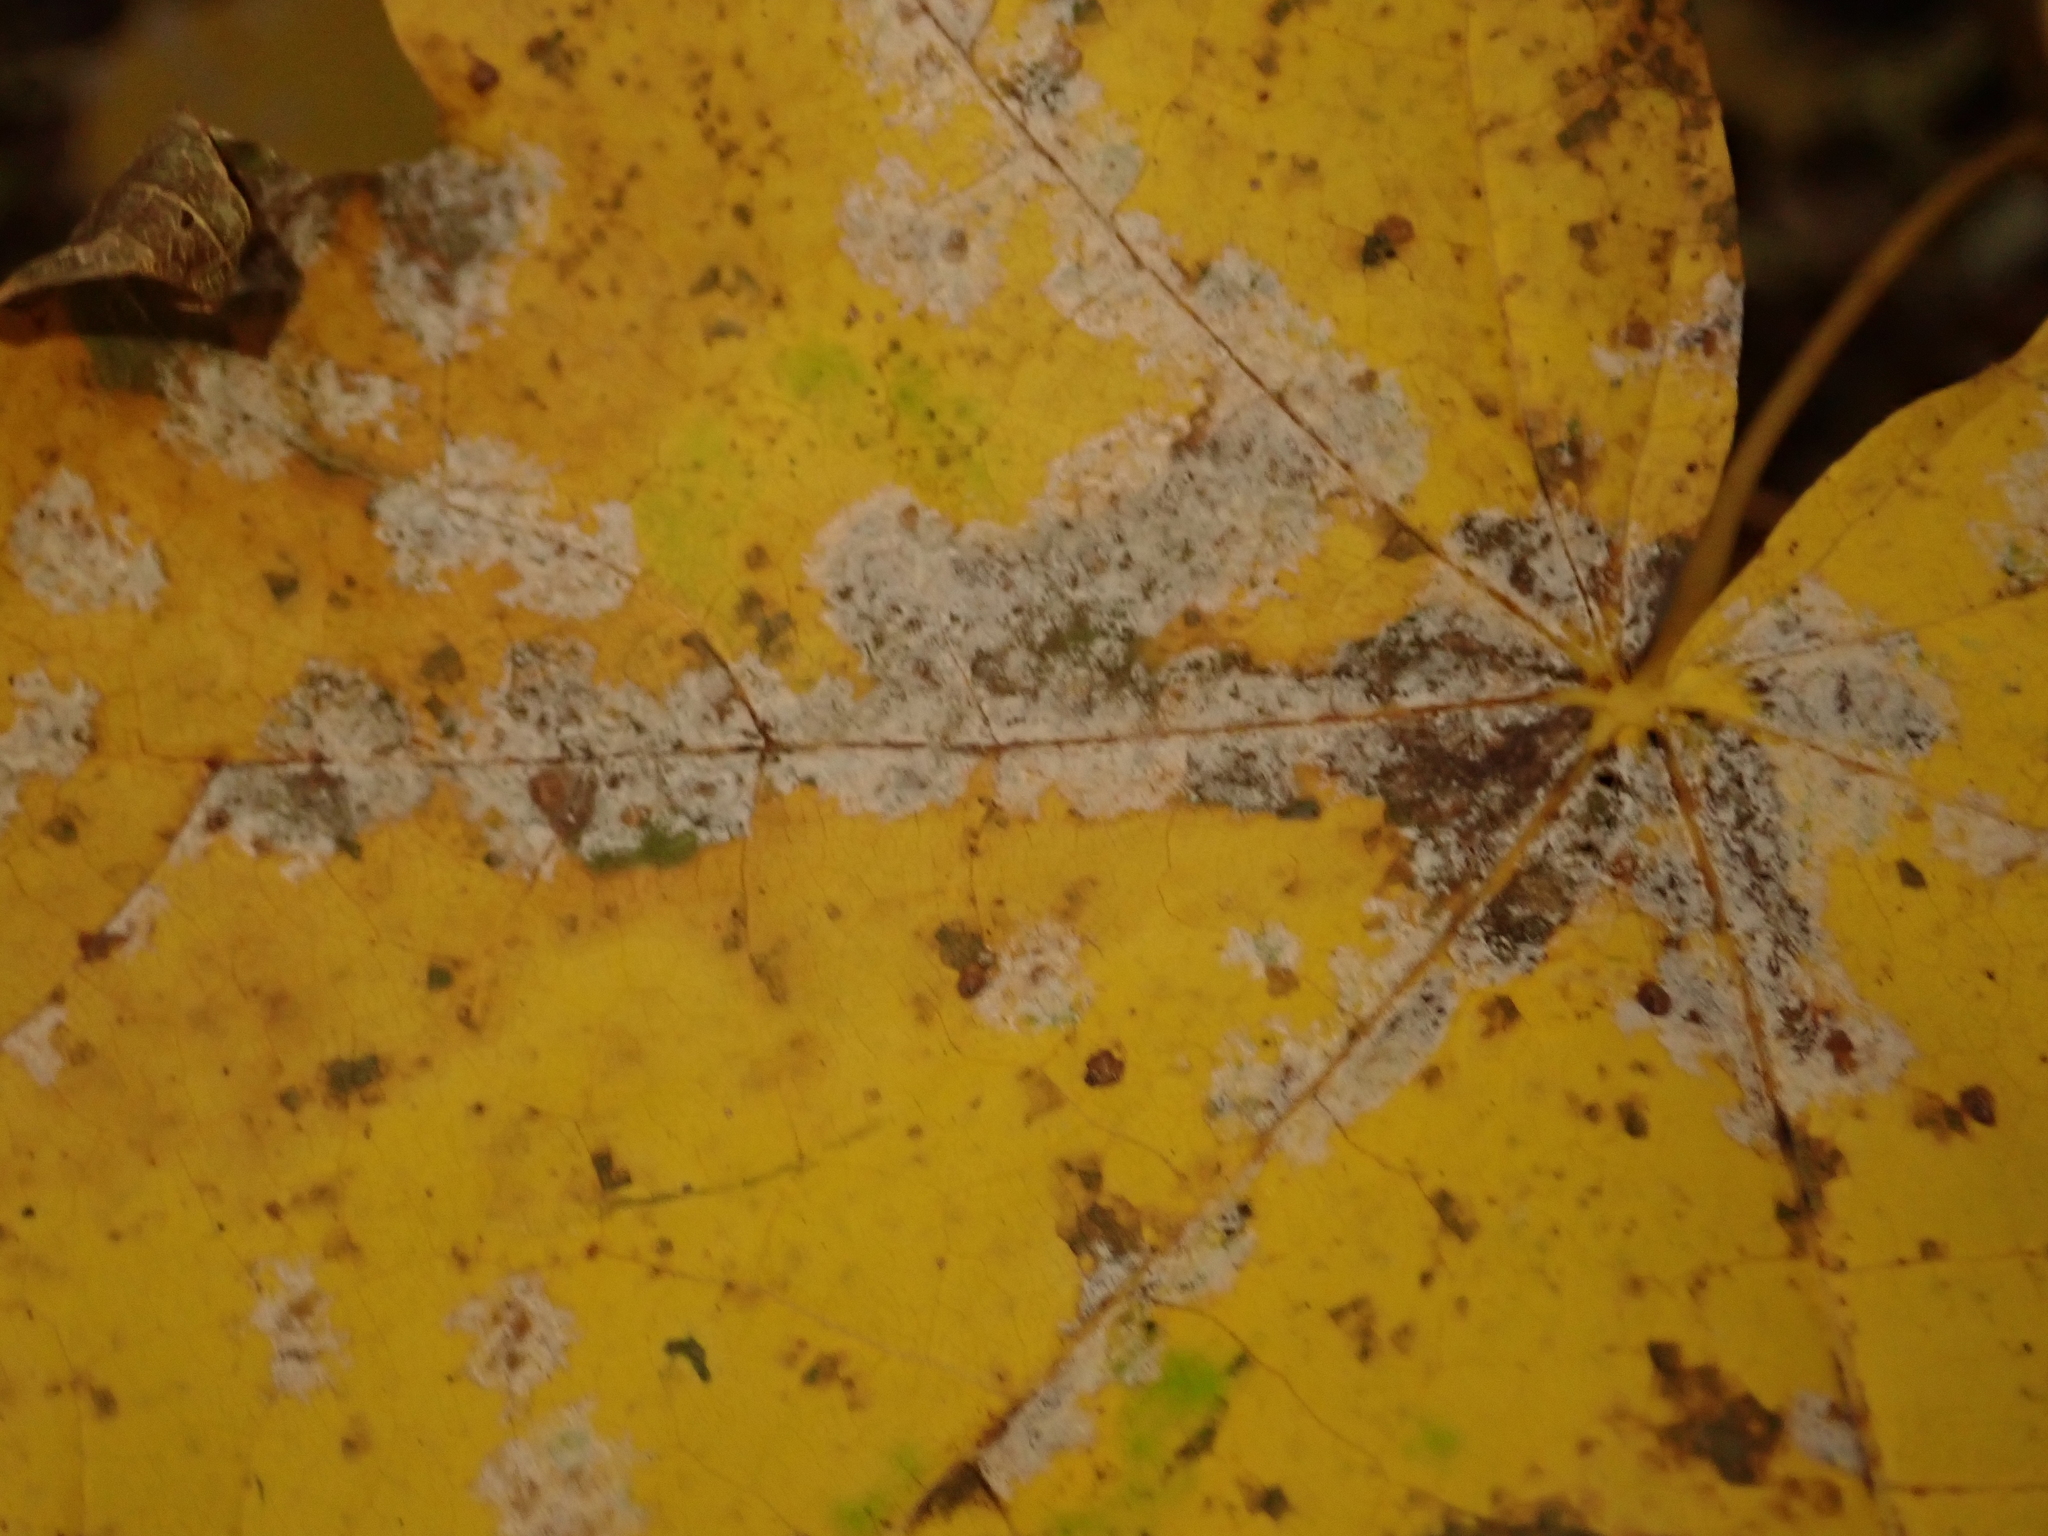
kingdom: Fungi
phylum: Ascomycota
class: Leotiomycetes
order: Helotiales
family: Erysiphaceae
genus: Sawadaea
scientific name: Sawadaea tulasnei
